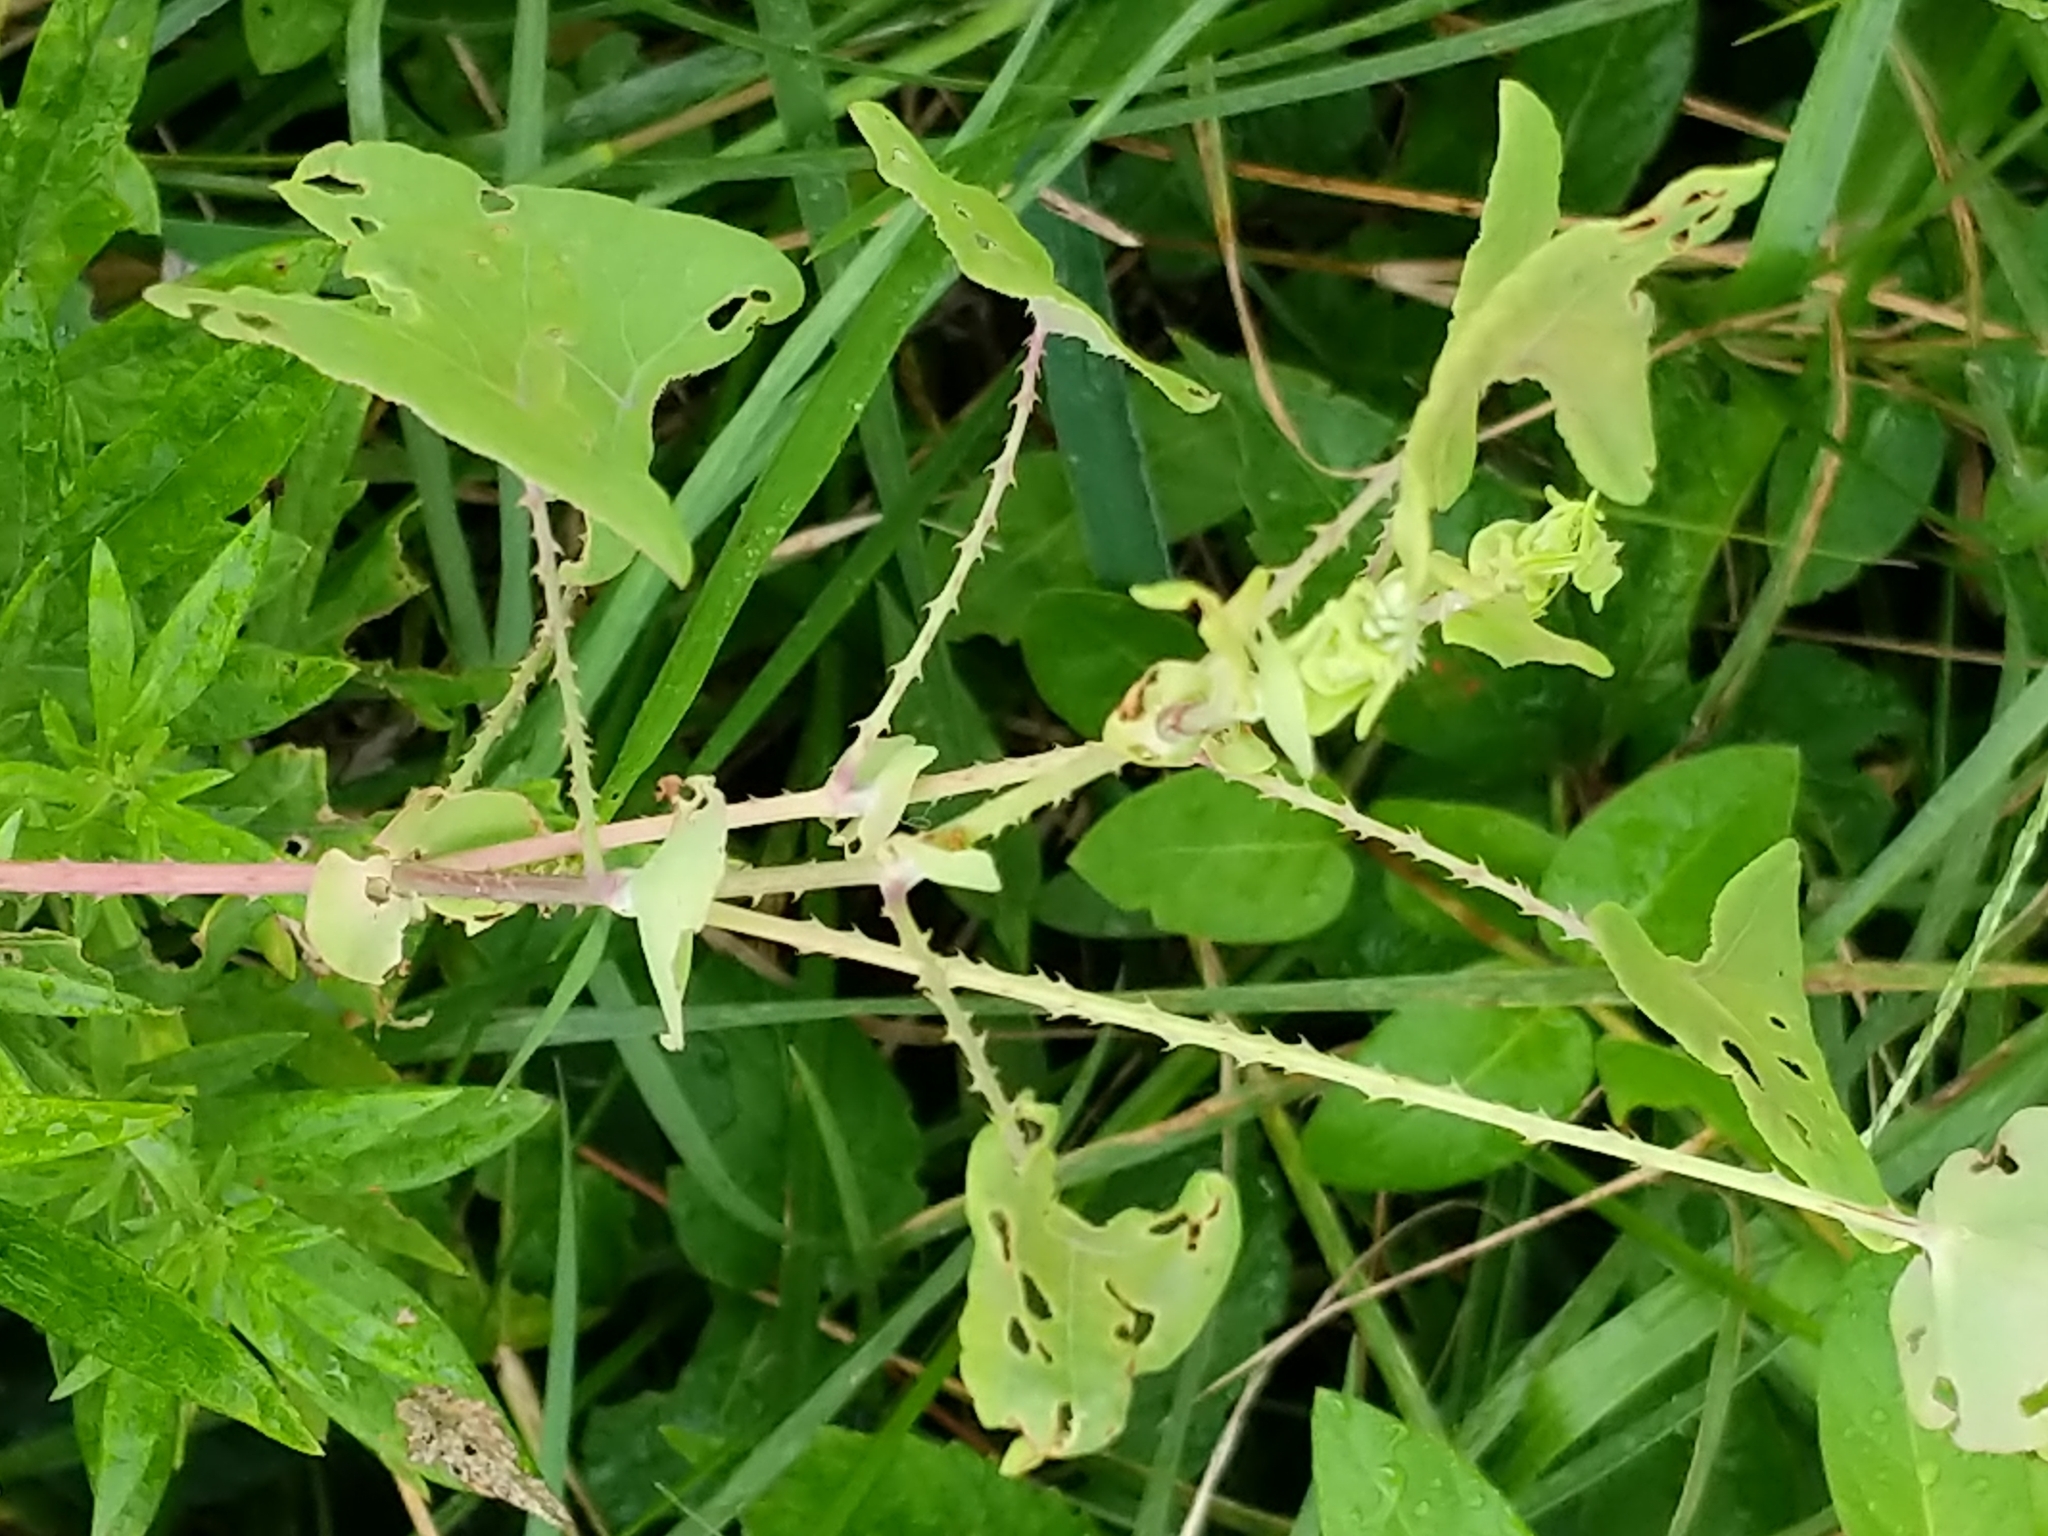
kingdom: Plantae
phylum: Tracheophyta
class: Magnoliopsida
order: Caryophyllales
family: Polygonaceae
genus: Persicaria
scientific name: Persicaria perfoliata
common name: Asiatic tearthumb
